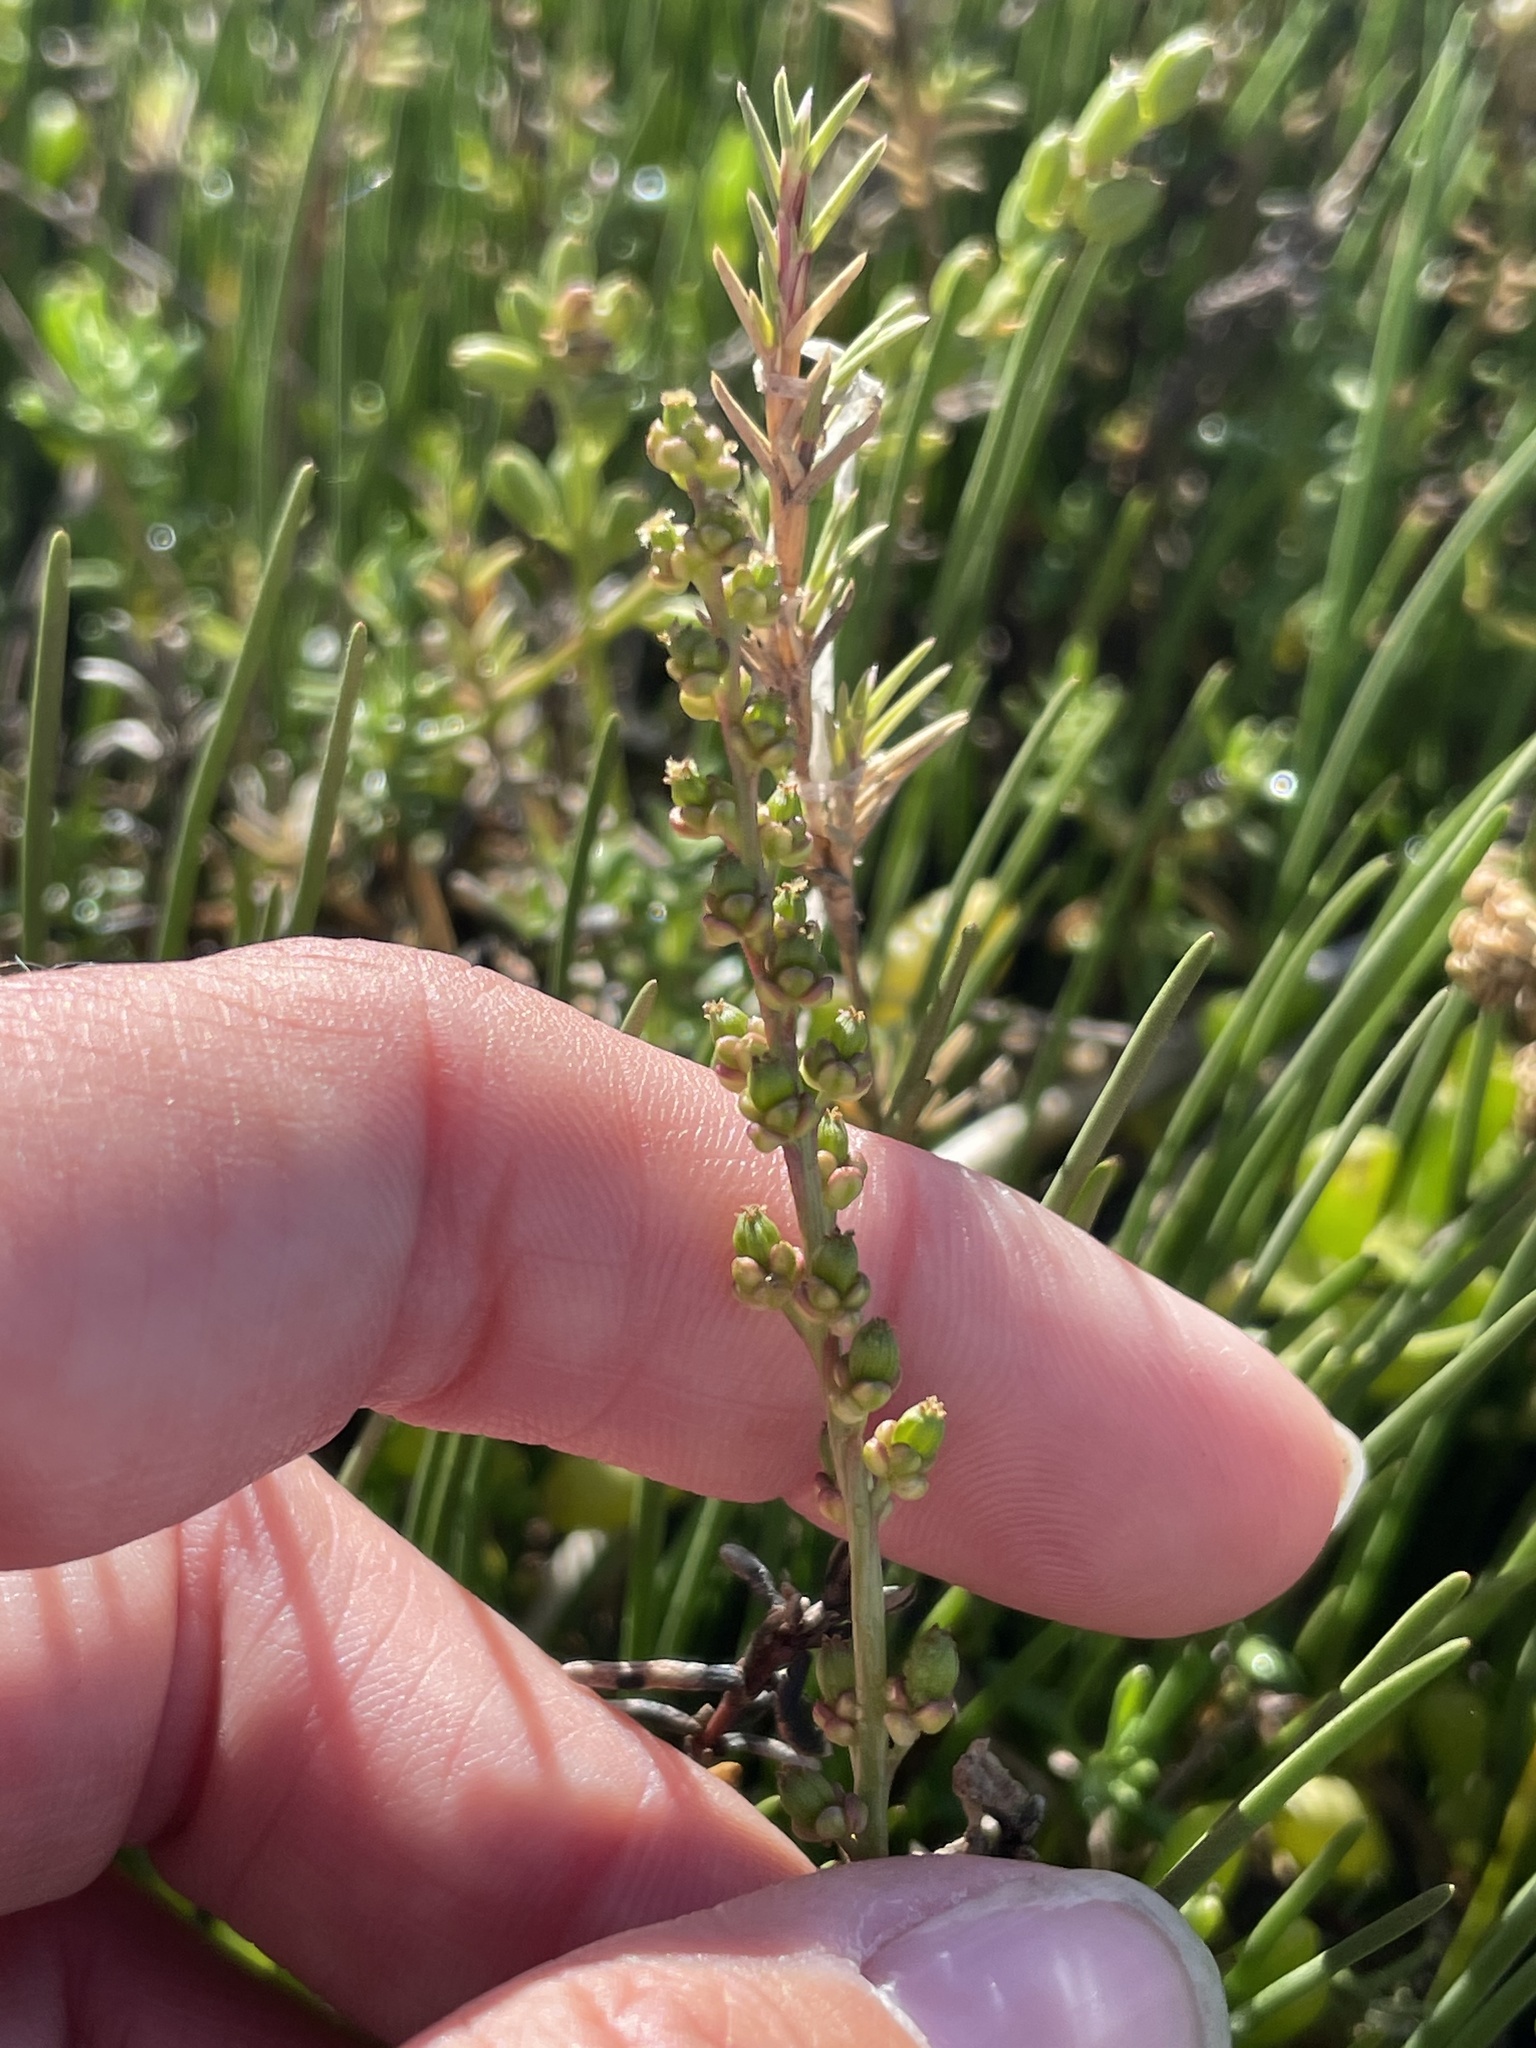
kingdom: Plantae
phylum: Tracheophyta
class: Liliopsida
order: Alismatales
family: Juncaginaceae
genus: Triglochin
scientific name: Triglochin maritima
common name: Sea arrowgrass
